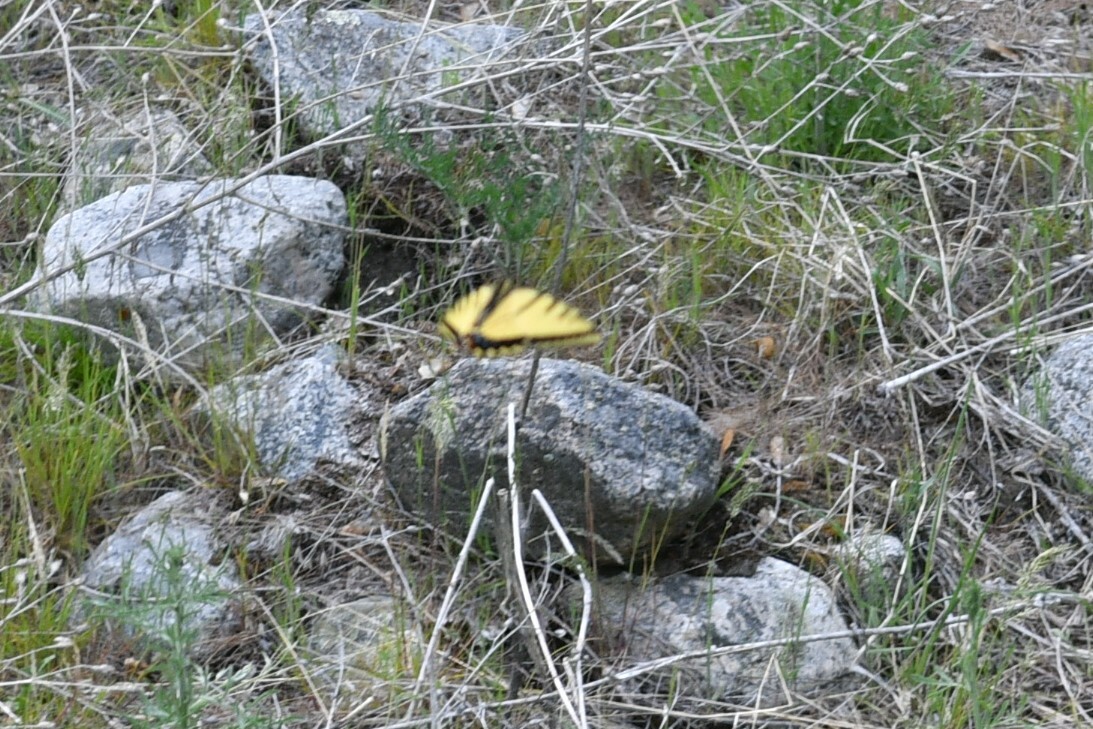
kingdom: Animalia
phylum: Arthropoda
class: Insecta
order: Lepidoptera
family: Papilionidae
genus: Papilio
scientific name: Papilio multicaudata
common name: Two-tailed tiger swallowtail
